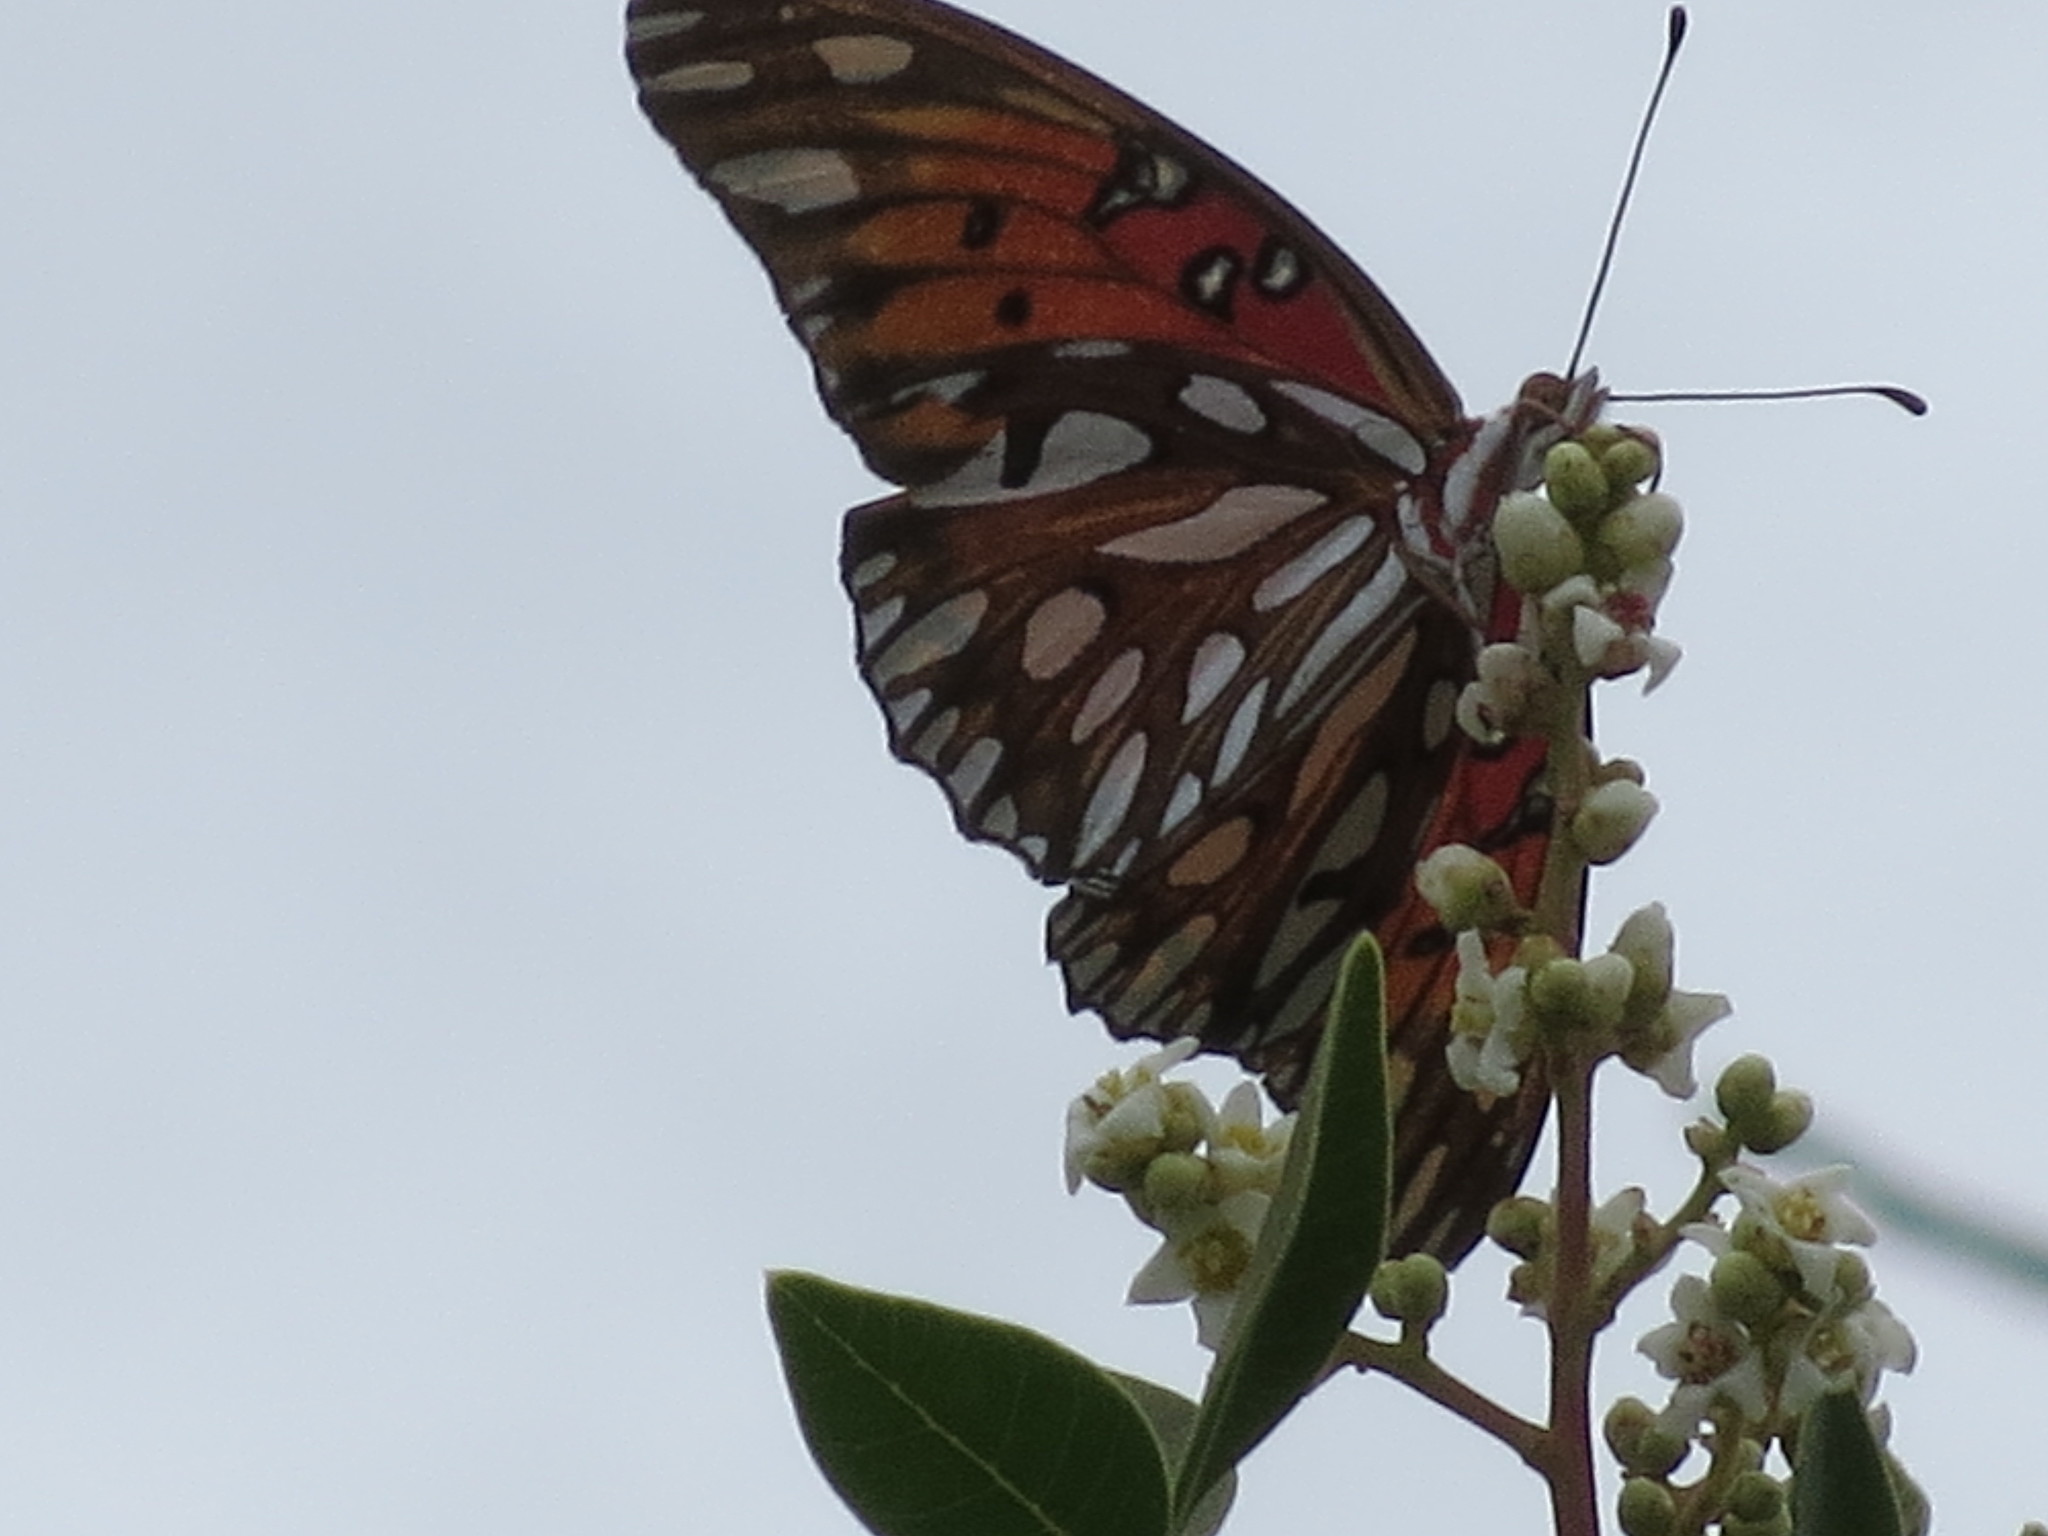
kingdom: Animalia
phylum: Arthropoda
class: Insecta
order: Lepidoptera
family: Nymphalidae
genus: Dione
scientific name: Dione vanillae
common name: Gulf fritillary
